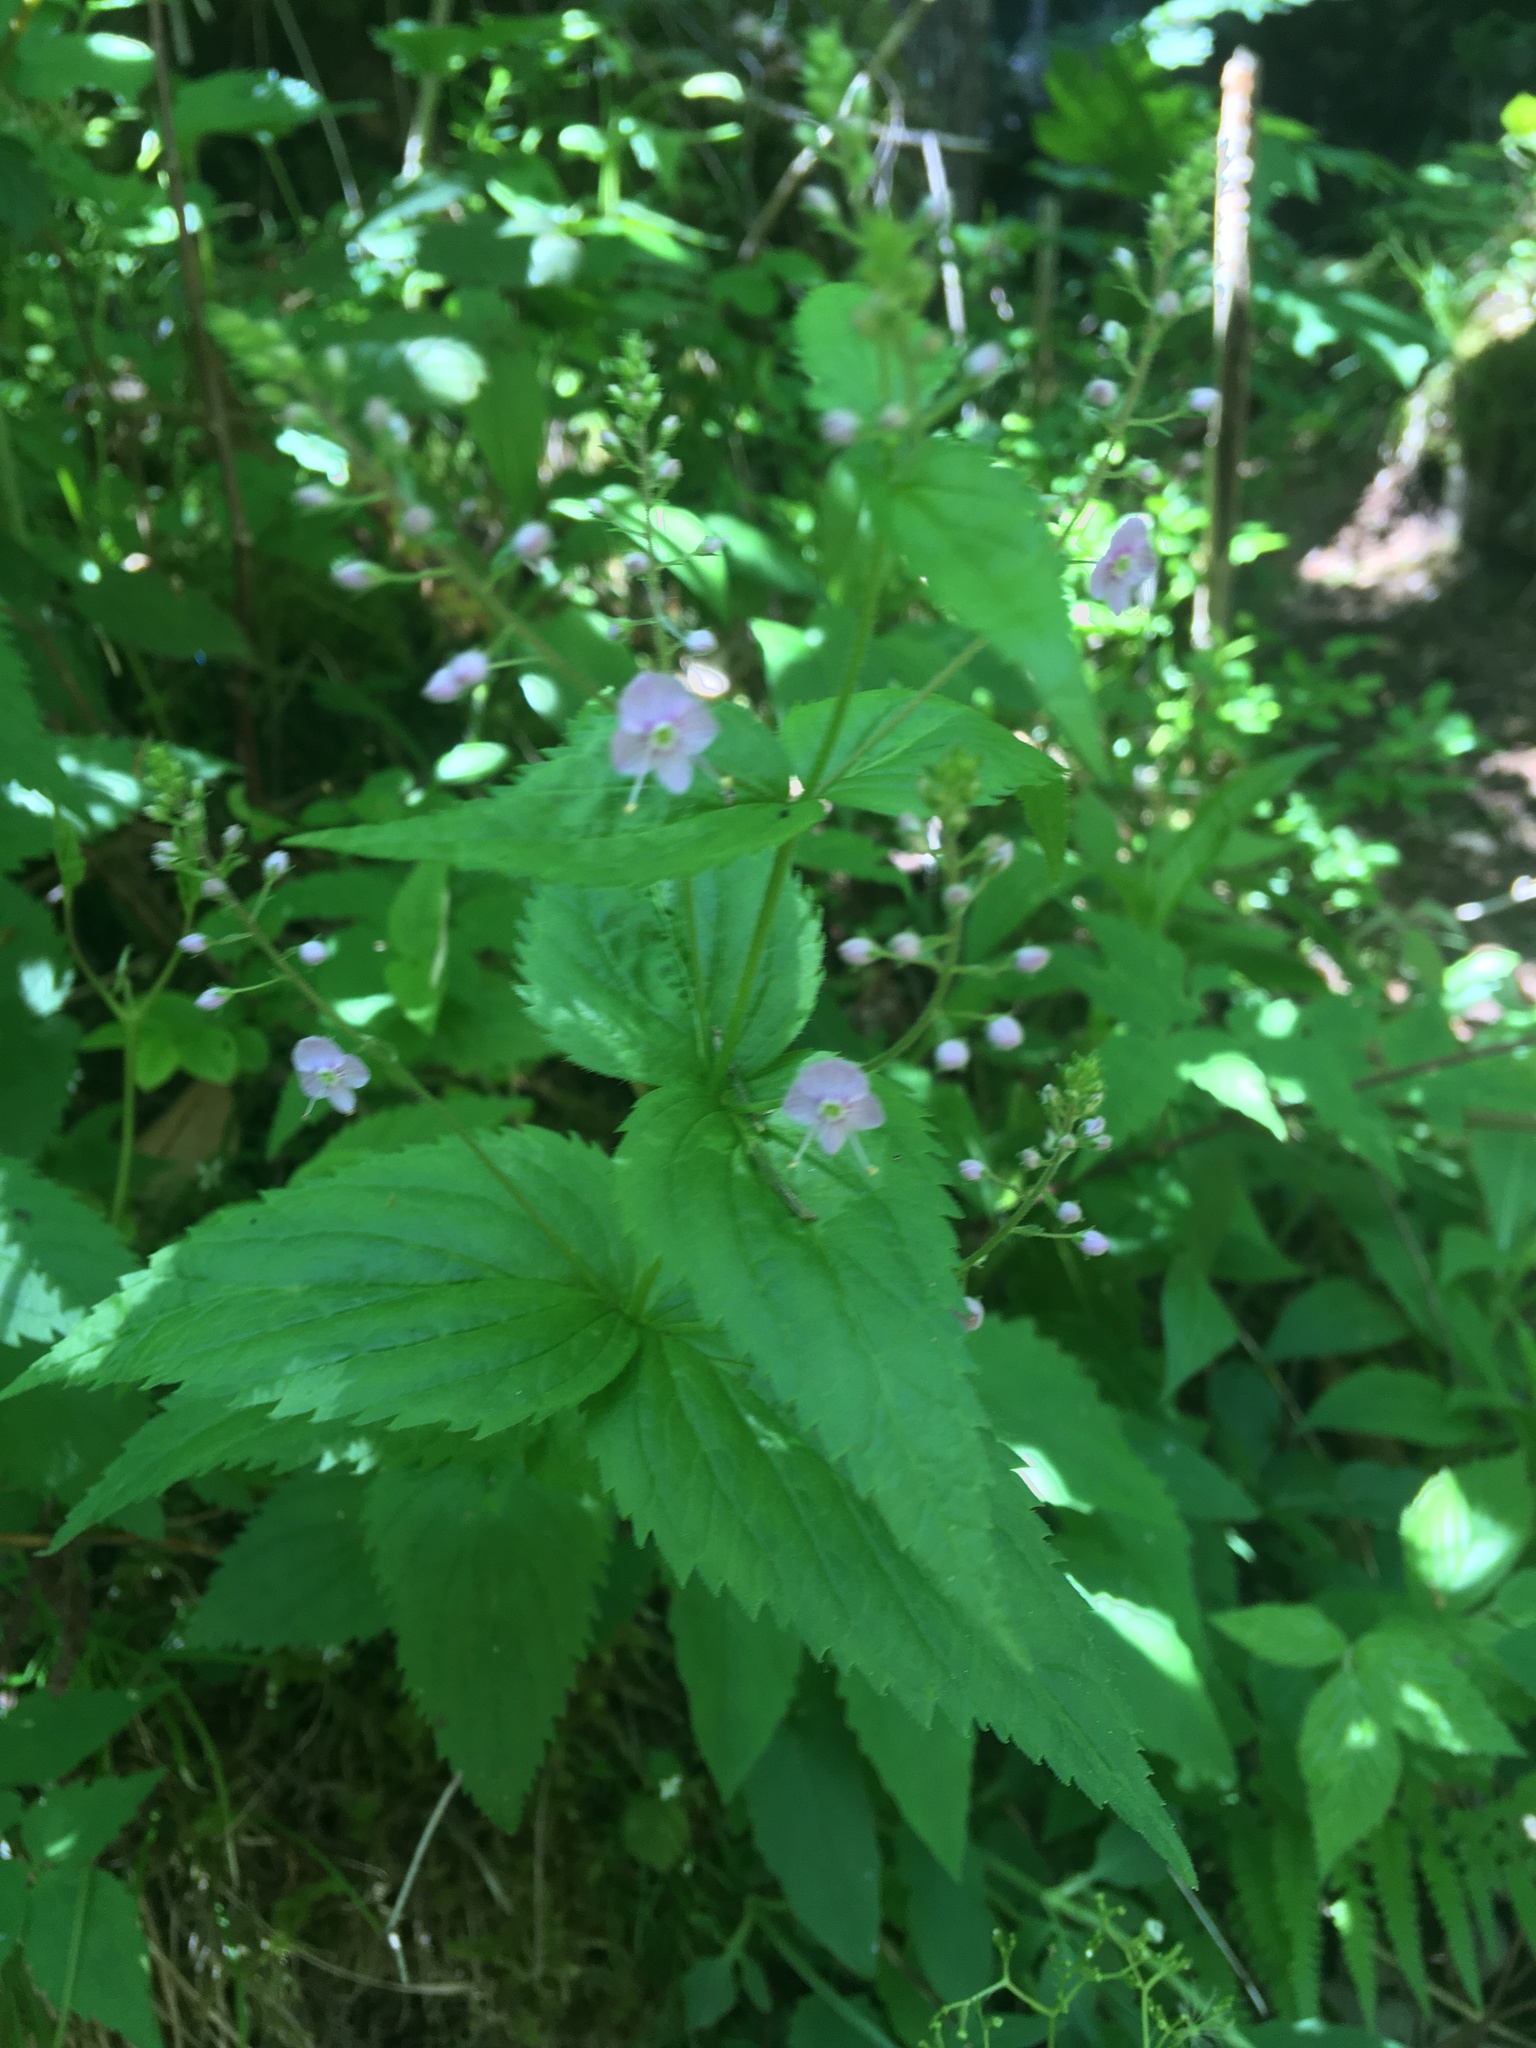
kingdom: Plantae
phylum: Tracheophyta
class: Magnoliopsida
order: Lamiales
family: Plantaginaceae
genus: Veronica
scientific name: Veronica urticifolia
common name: Nettle-leaf speedwell
